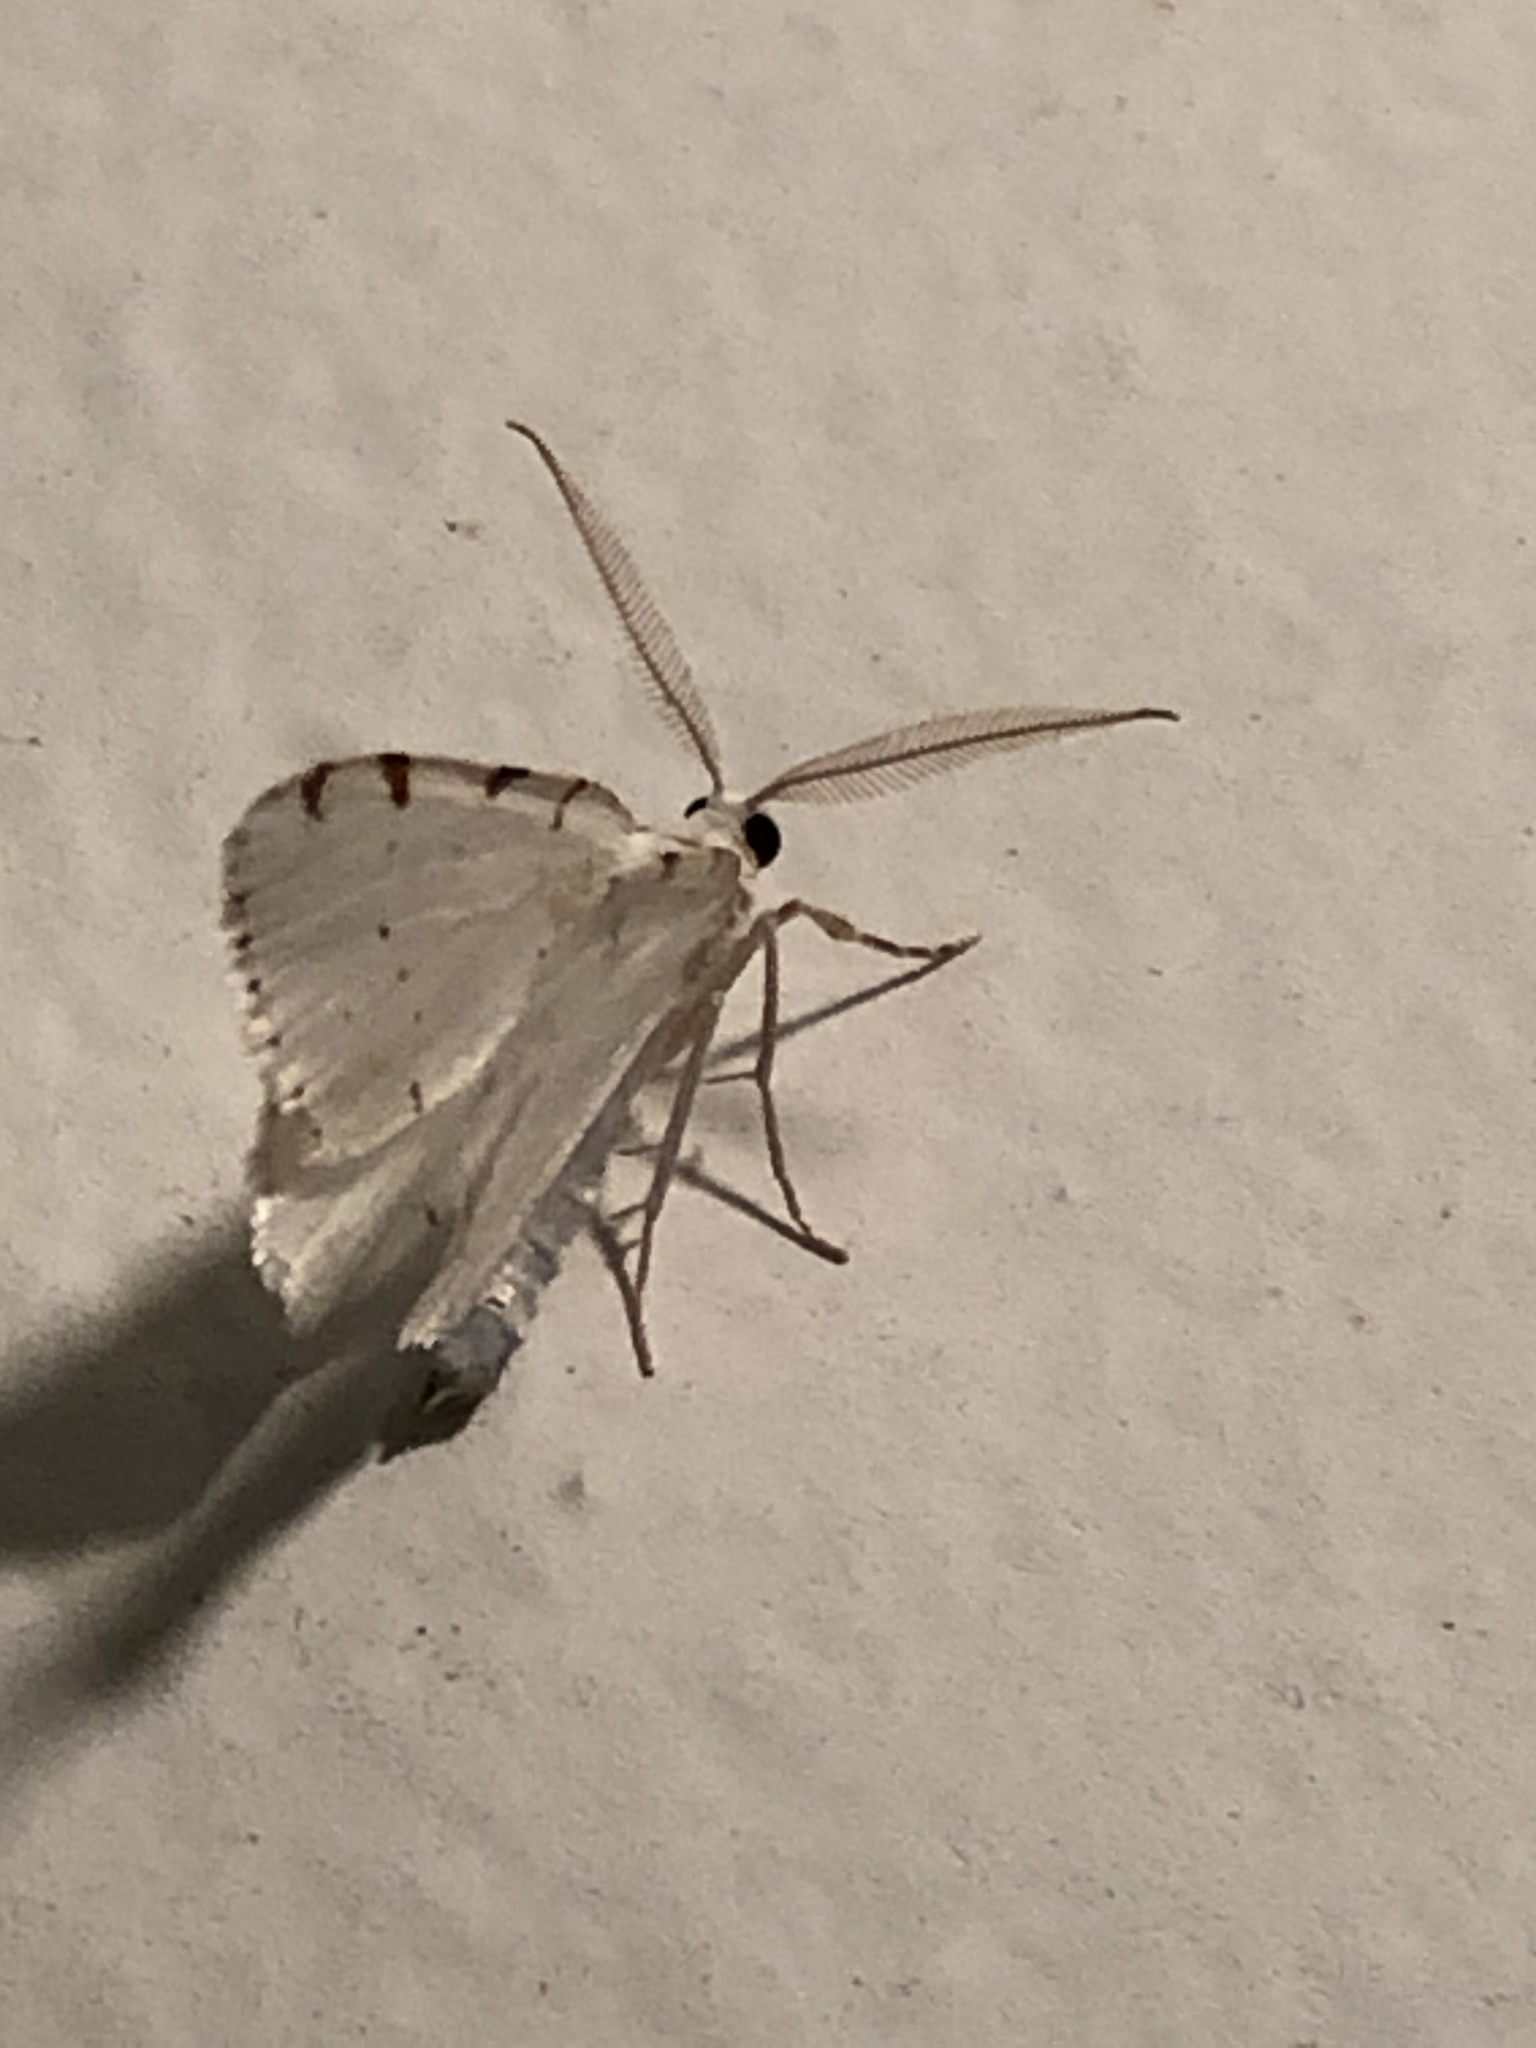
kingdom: Animalia
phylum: Arthropoda
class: Insecta
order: Lepidoptera
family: Geometridae
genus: Macaria
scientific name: Macaria pustularia
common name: Lesser maple spanworm moth
